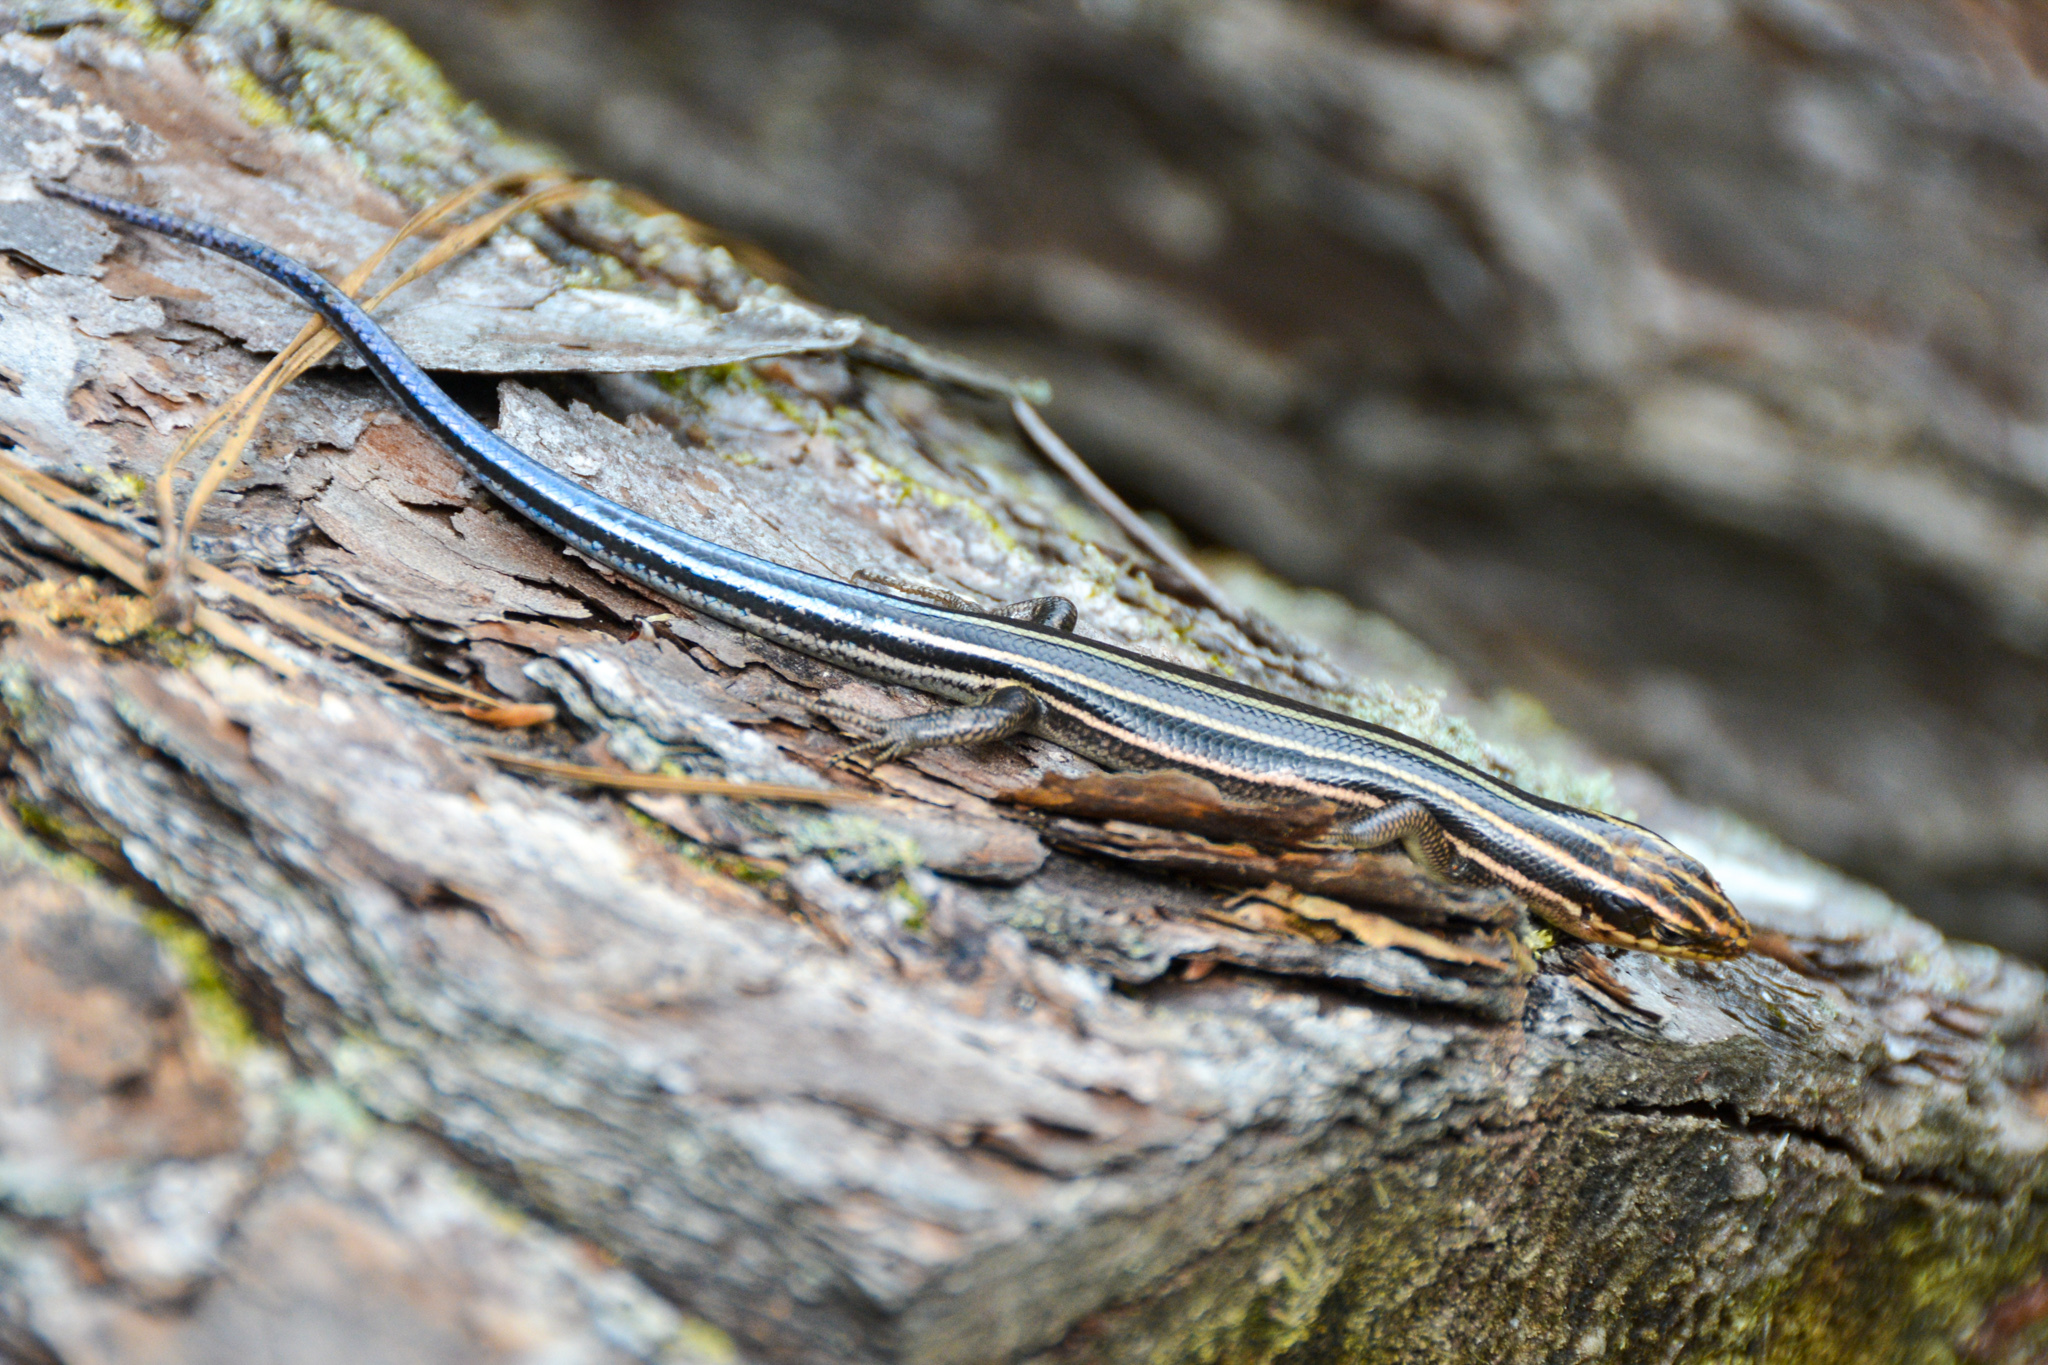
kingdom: Animalia
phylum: Chordata
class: Squamata
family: Scincidae
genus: Plestiodon
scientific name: Plestiodon
